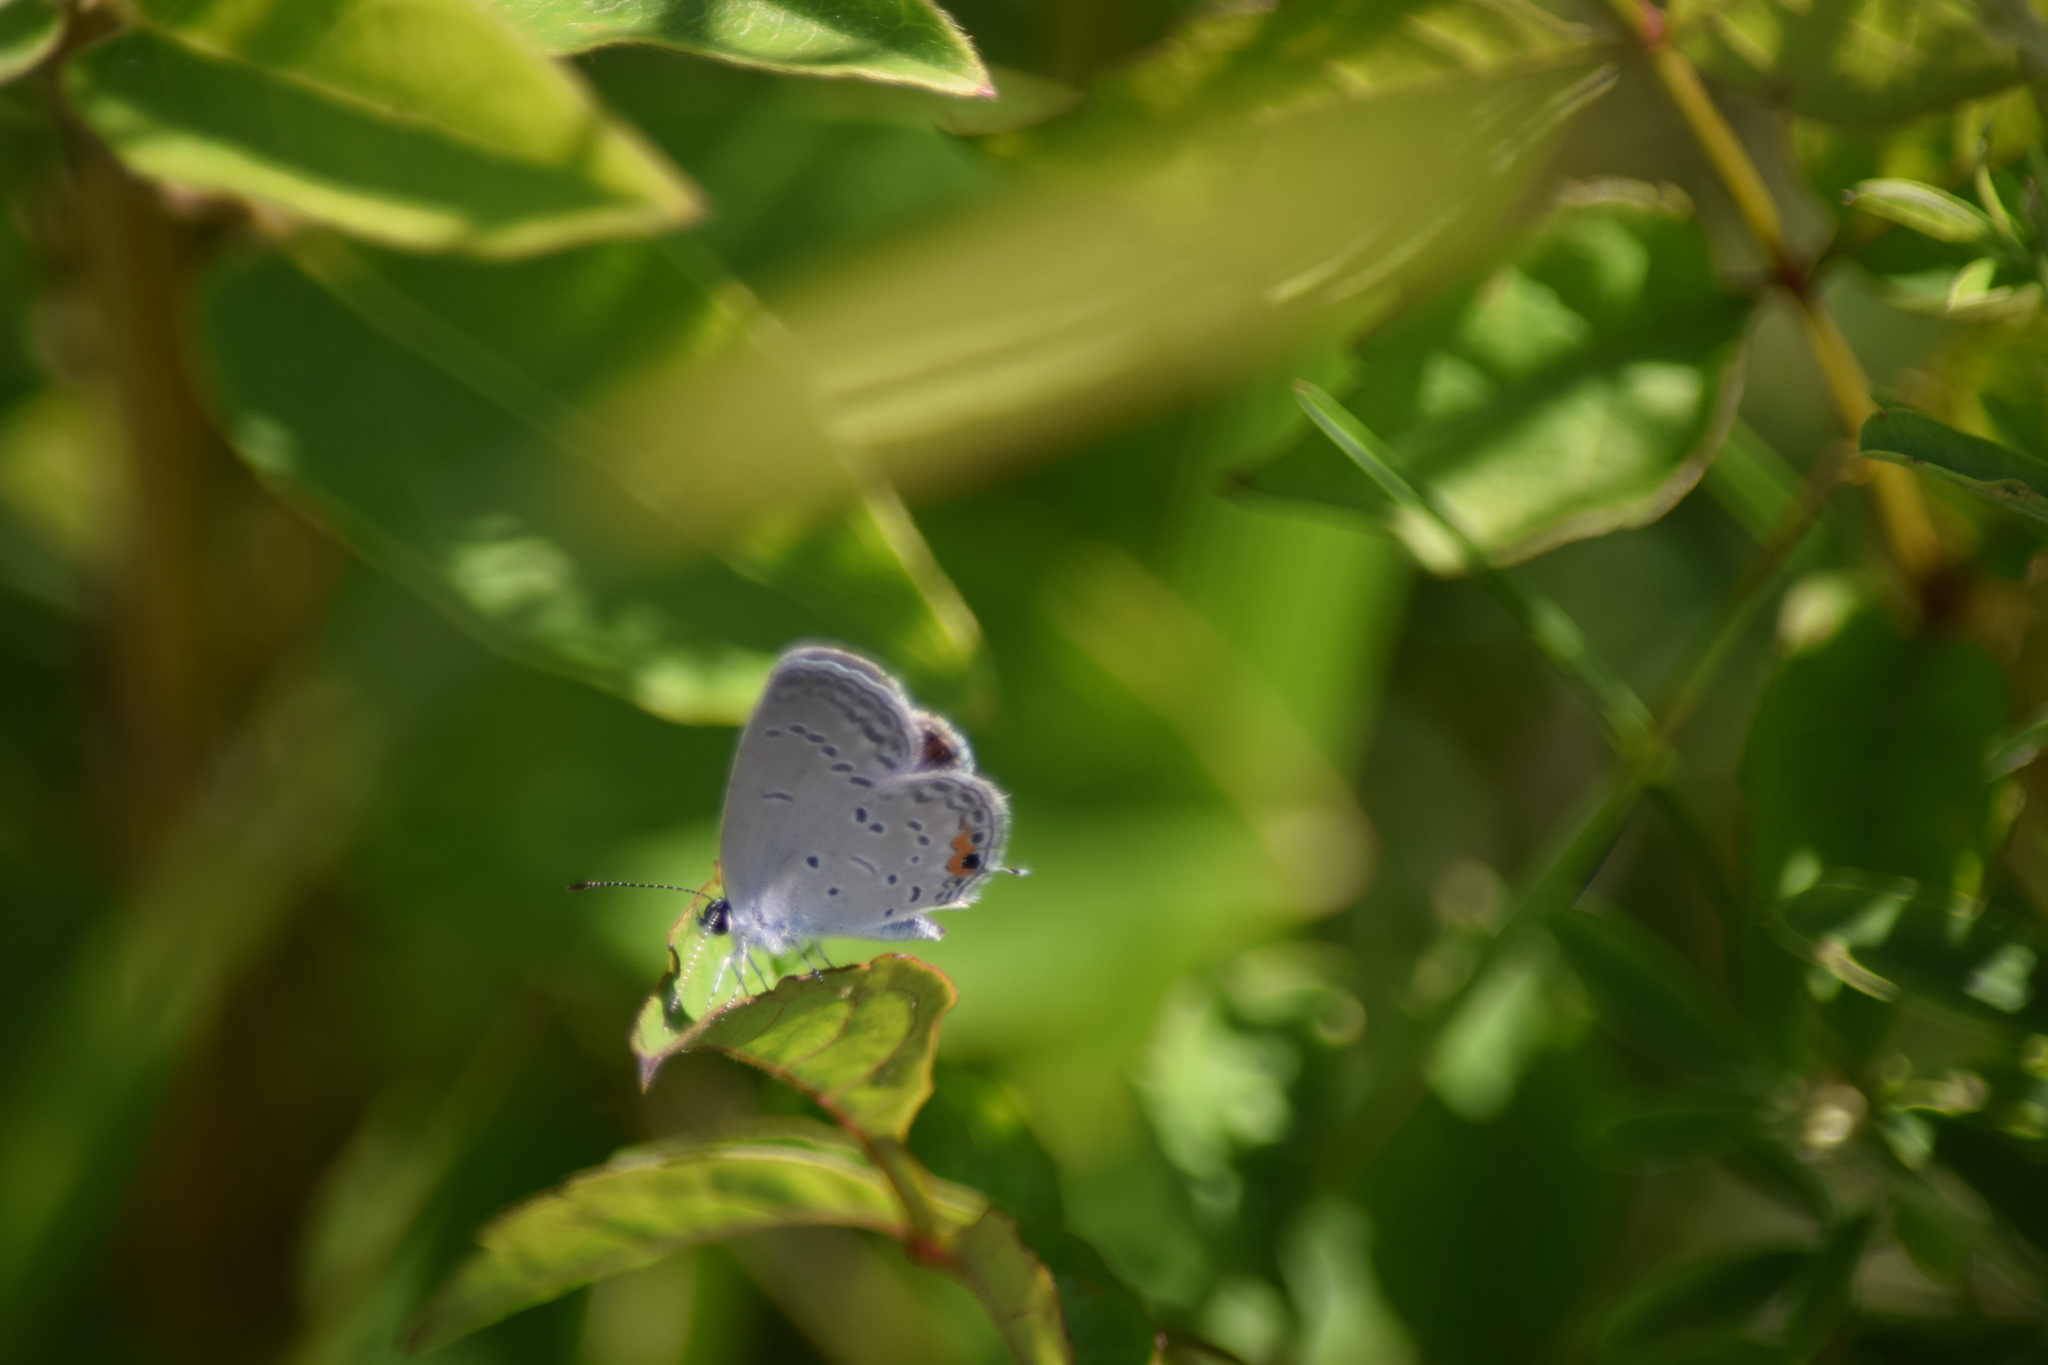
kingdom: Animalia
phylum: Arthropoda
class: Insecta
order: Lepidoptera
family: Lycaenidae
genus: Elkalyce
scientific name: Elkalyce comyntas
